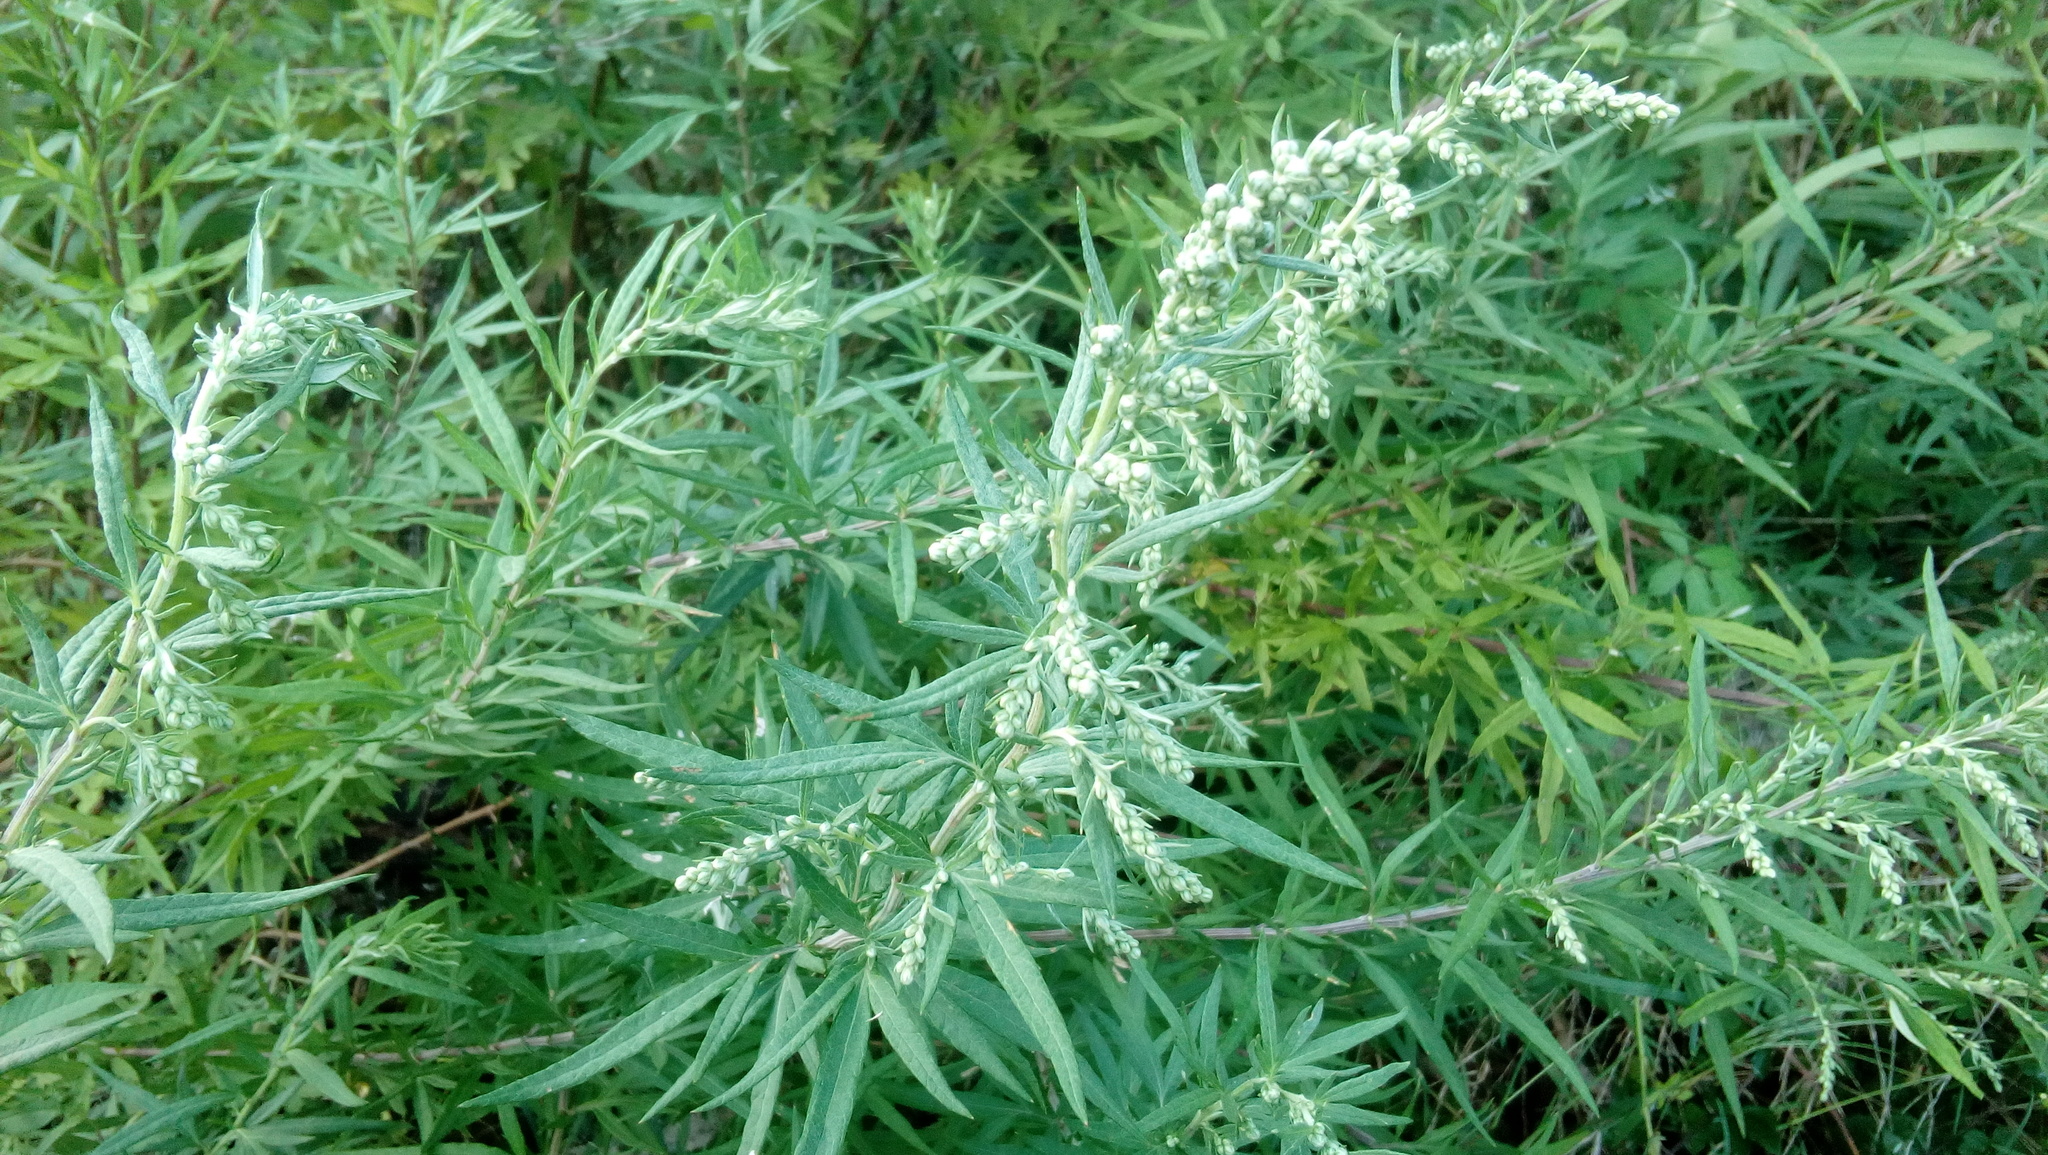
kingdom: Plantae
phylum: Tracheophyta
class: Magnoliopsida
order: Asterales
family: Asteraceae
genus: Artemisia
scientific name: Artemisia verlotiorum
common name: Chinese mugwort
